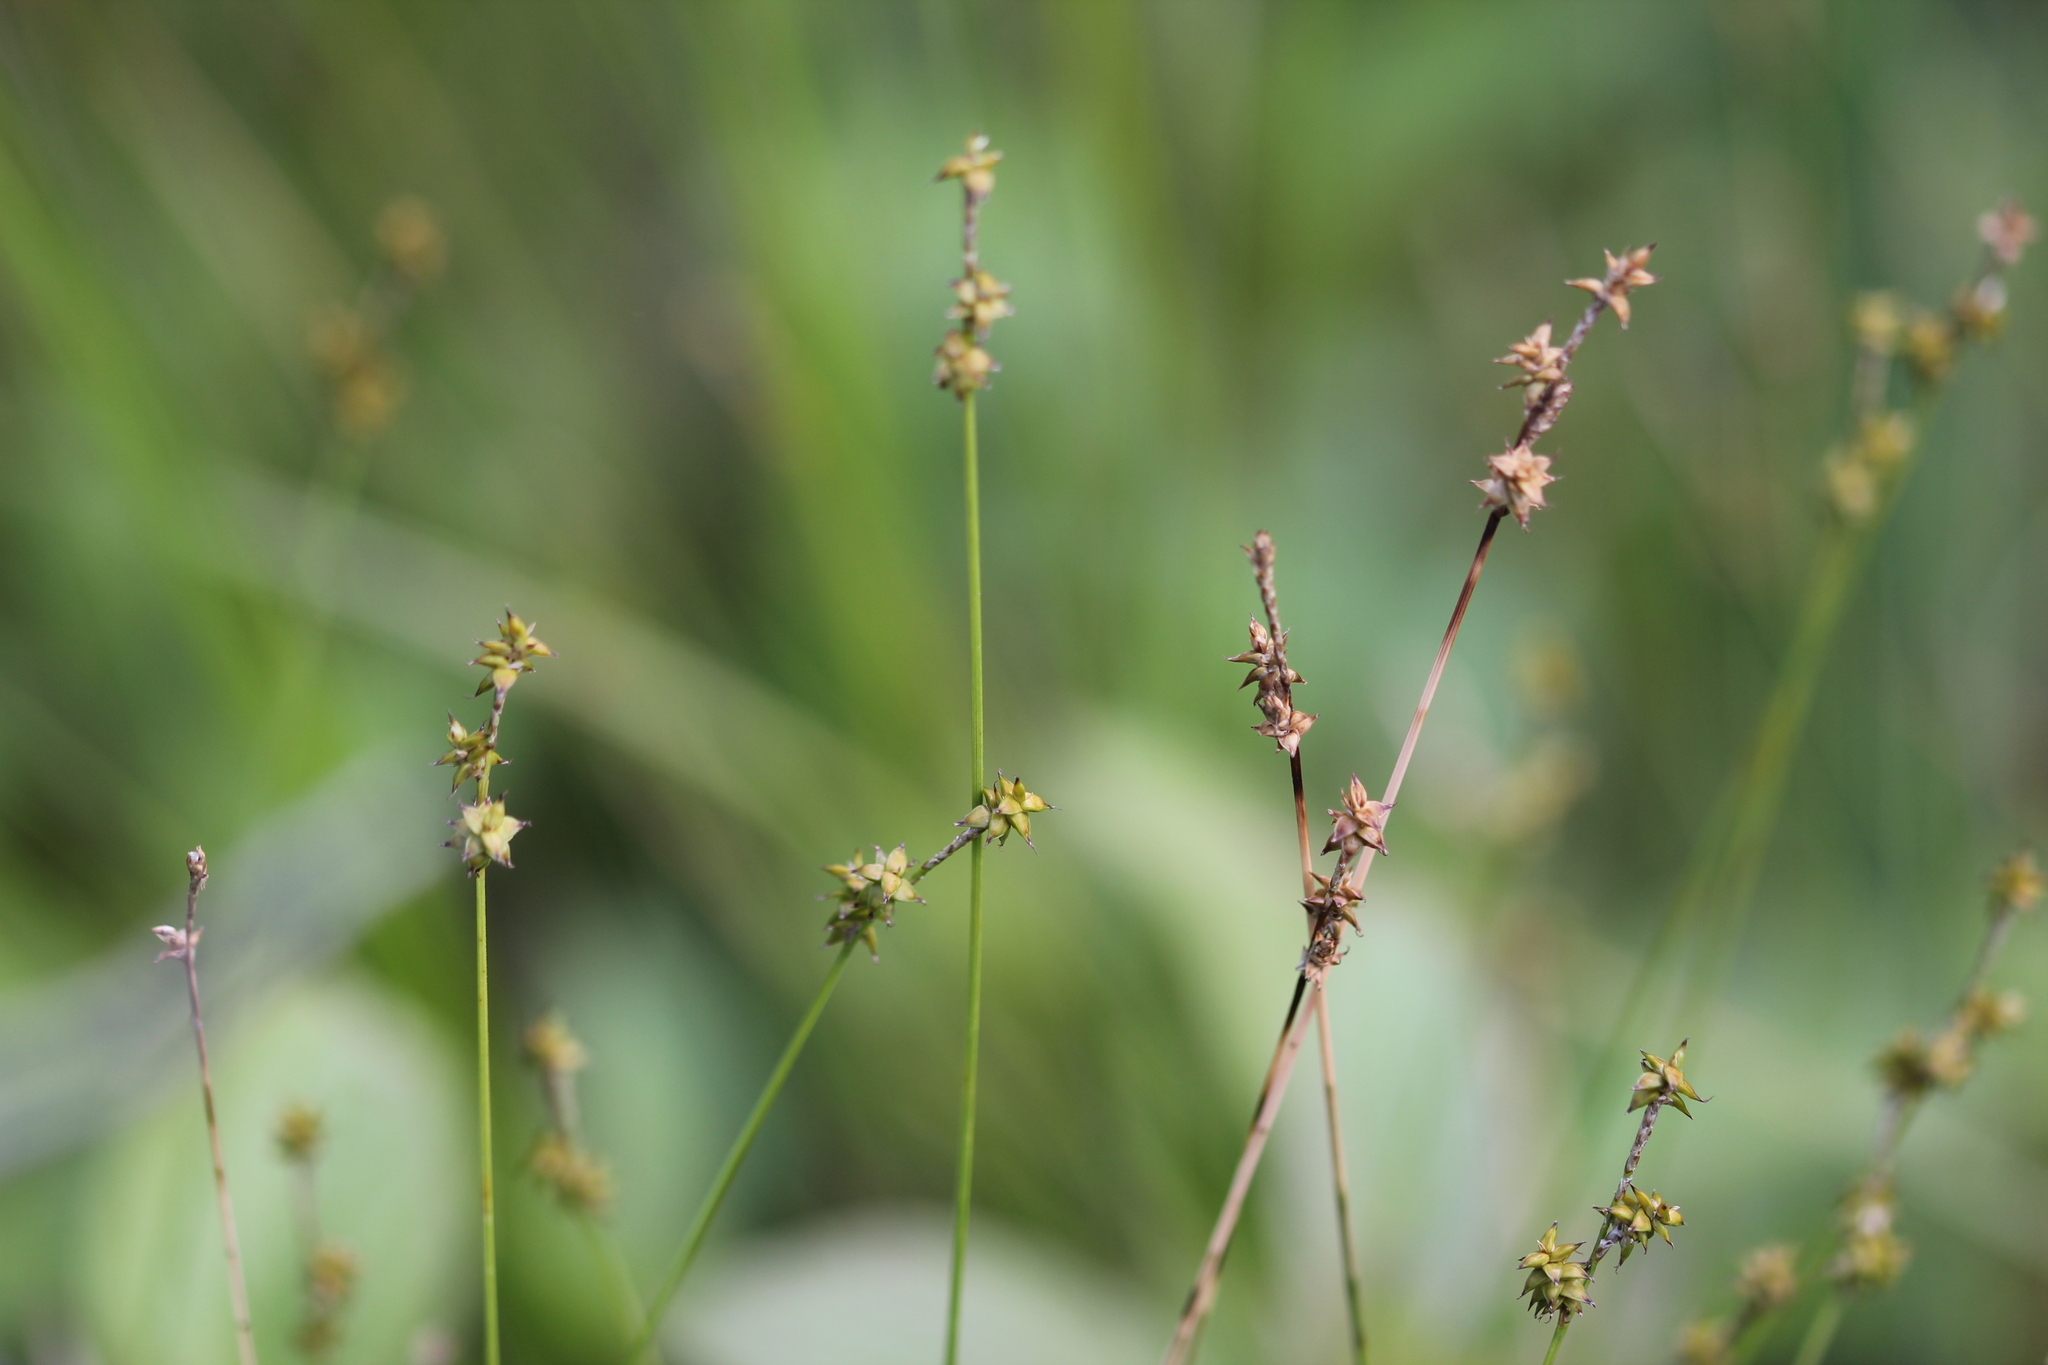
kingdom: Plantae
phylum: Tracheophyta
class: Liliopsida
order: Poales
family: Cyperaceae
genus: Carex
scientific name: Carex interior
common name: Inland sedge
